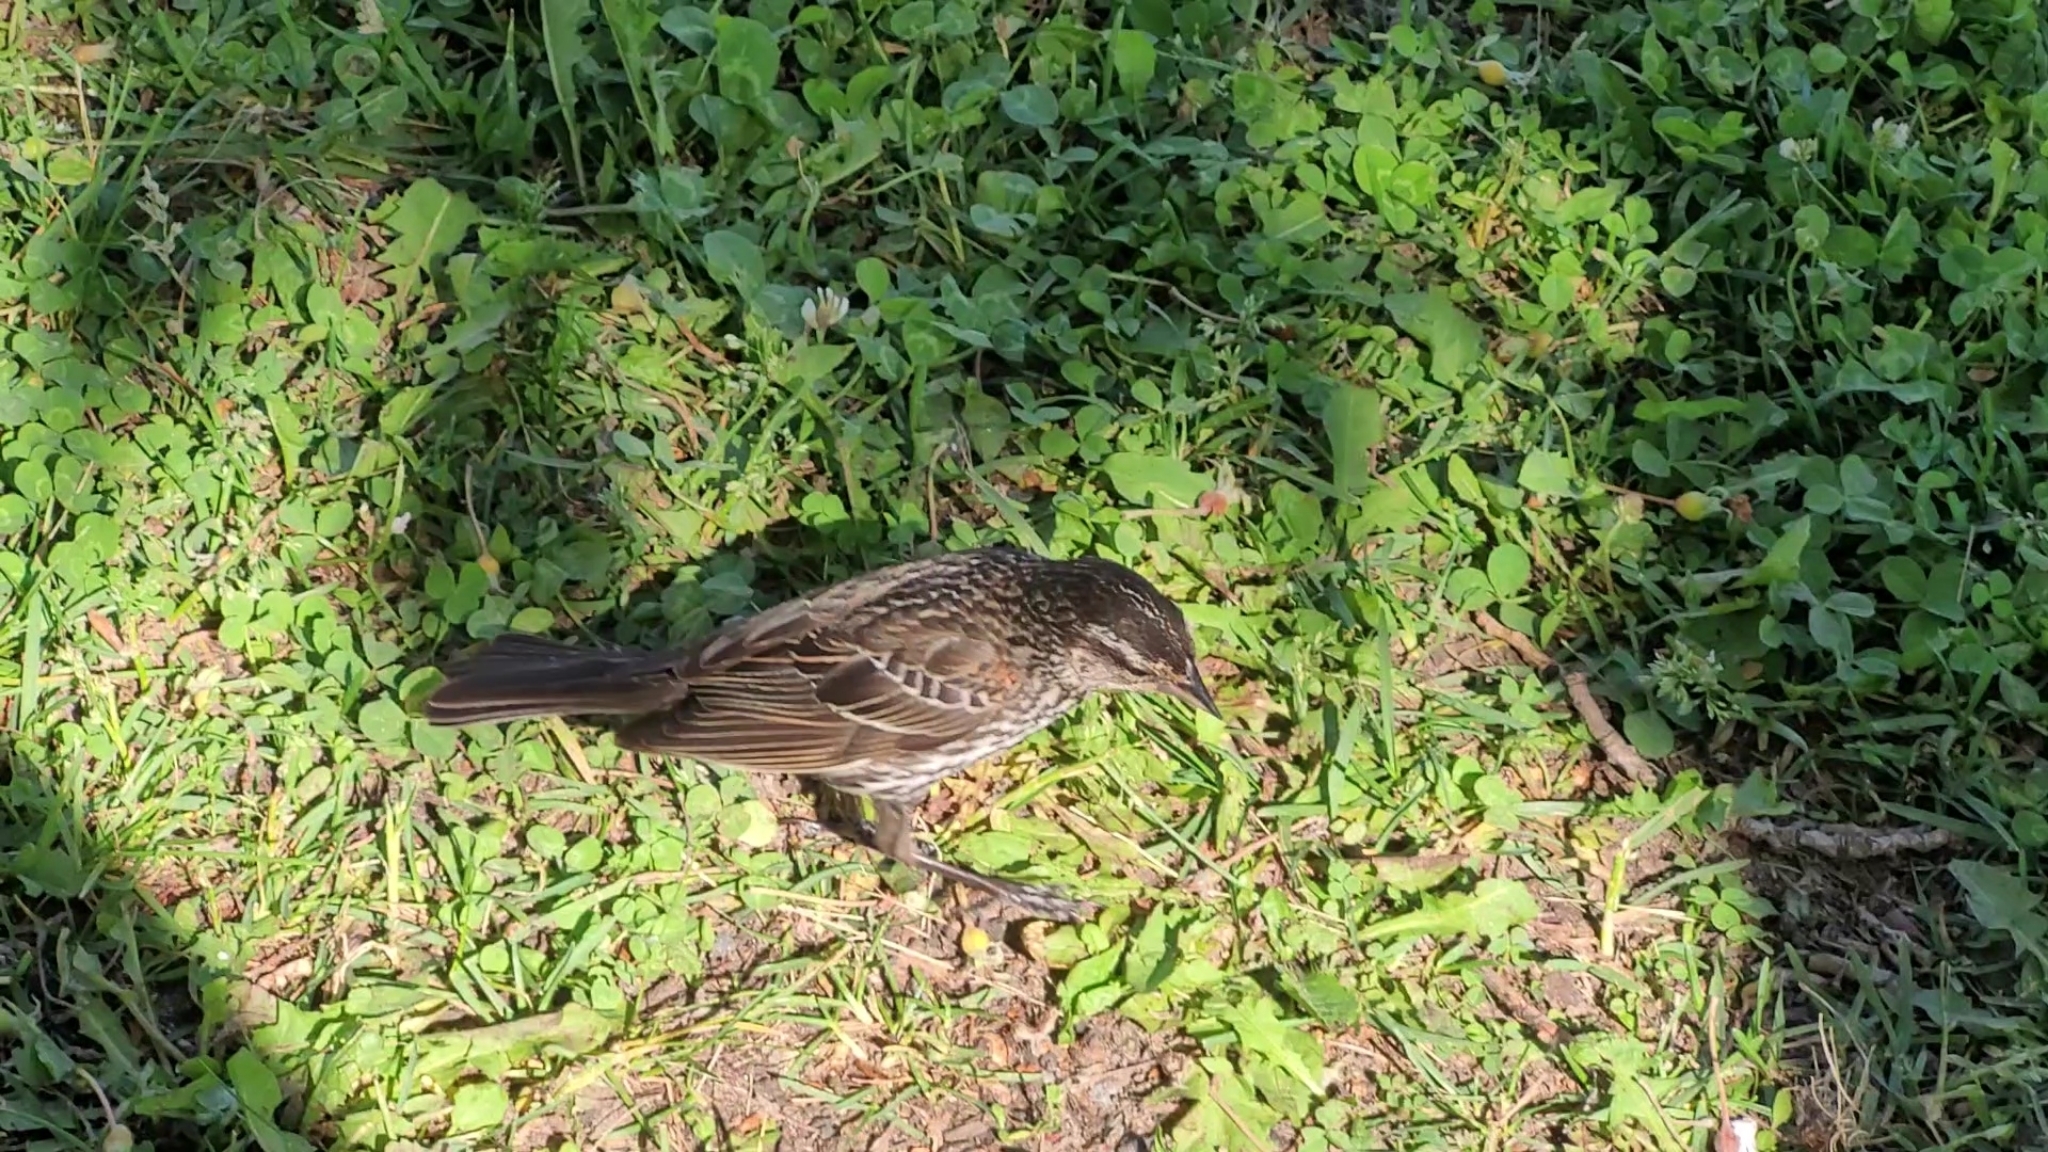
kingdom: Animalia
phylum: Chordata
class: Aves
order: Passeriformes
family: Icteridae
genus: Agelaius
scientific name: Agelaius phoeniceus
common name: Red-winged blackbird
